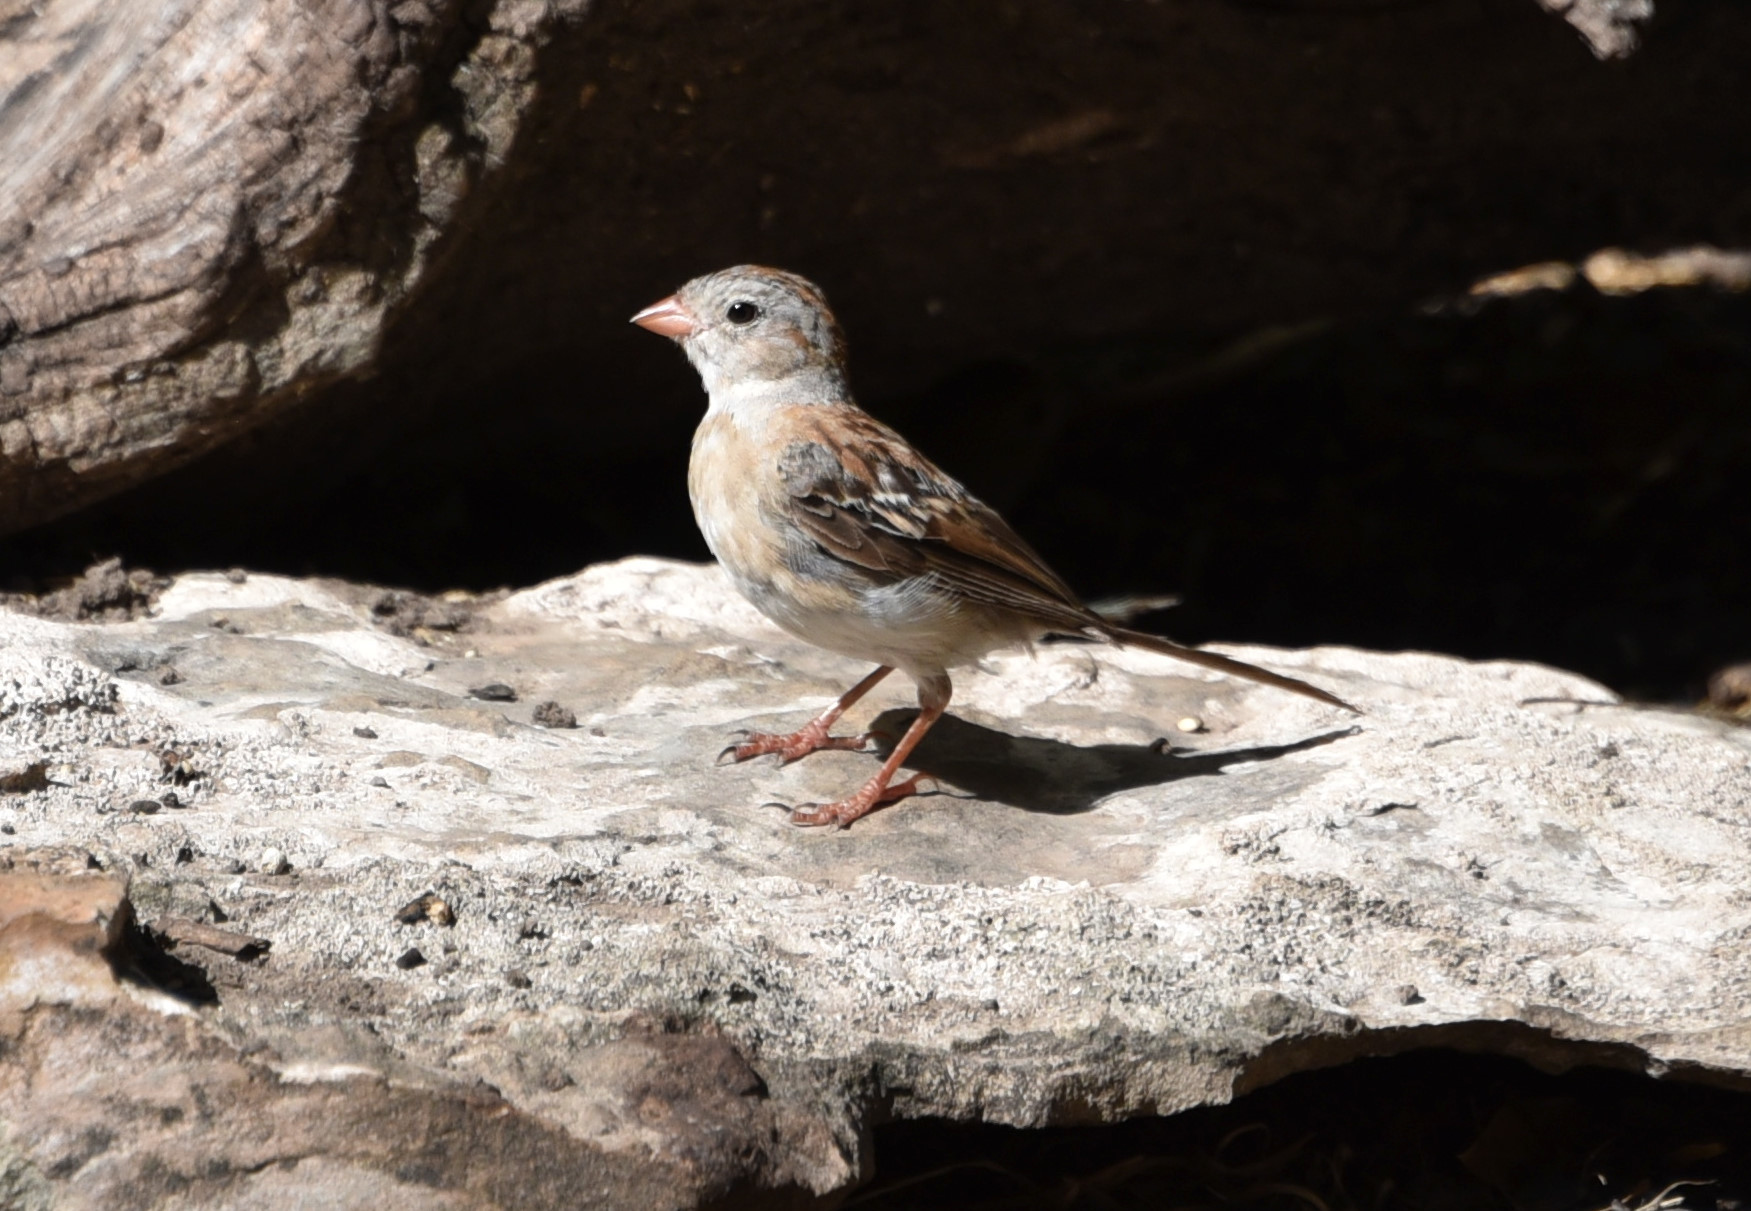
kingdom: Animalia
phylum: Chordata
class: Aves
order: Passeriformes
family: Passerellidae
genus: Spizella
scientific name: Spizella pusilla
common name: Field sparrow
